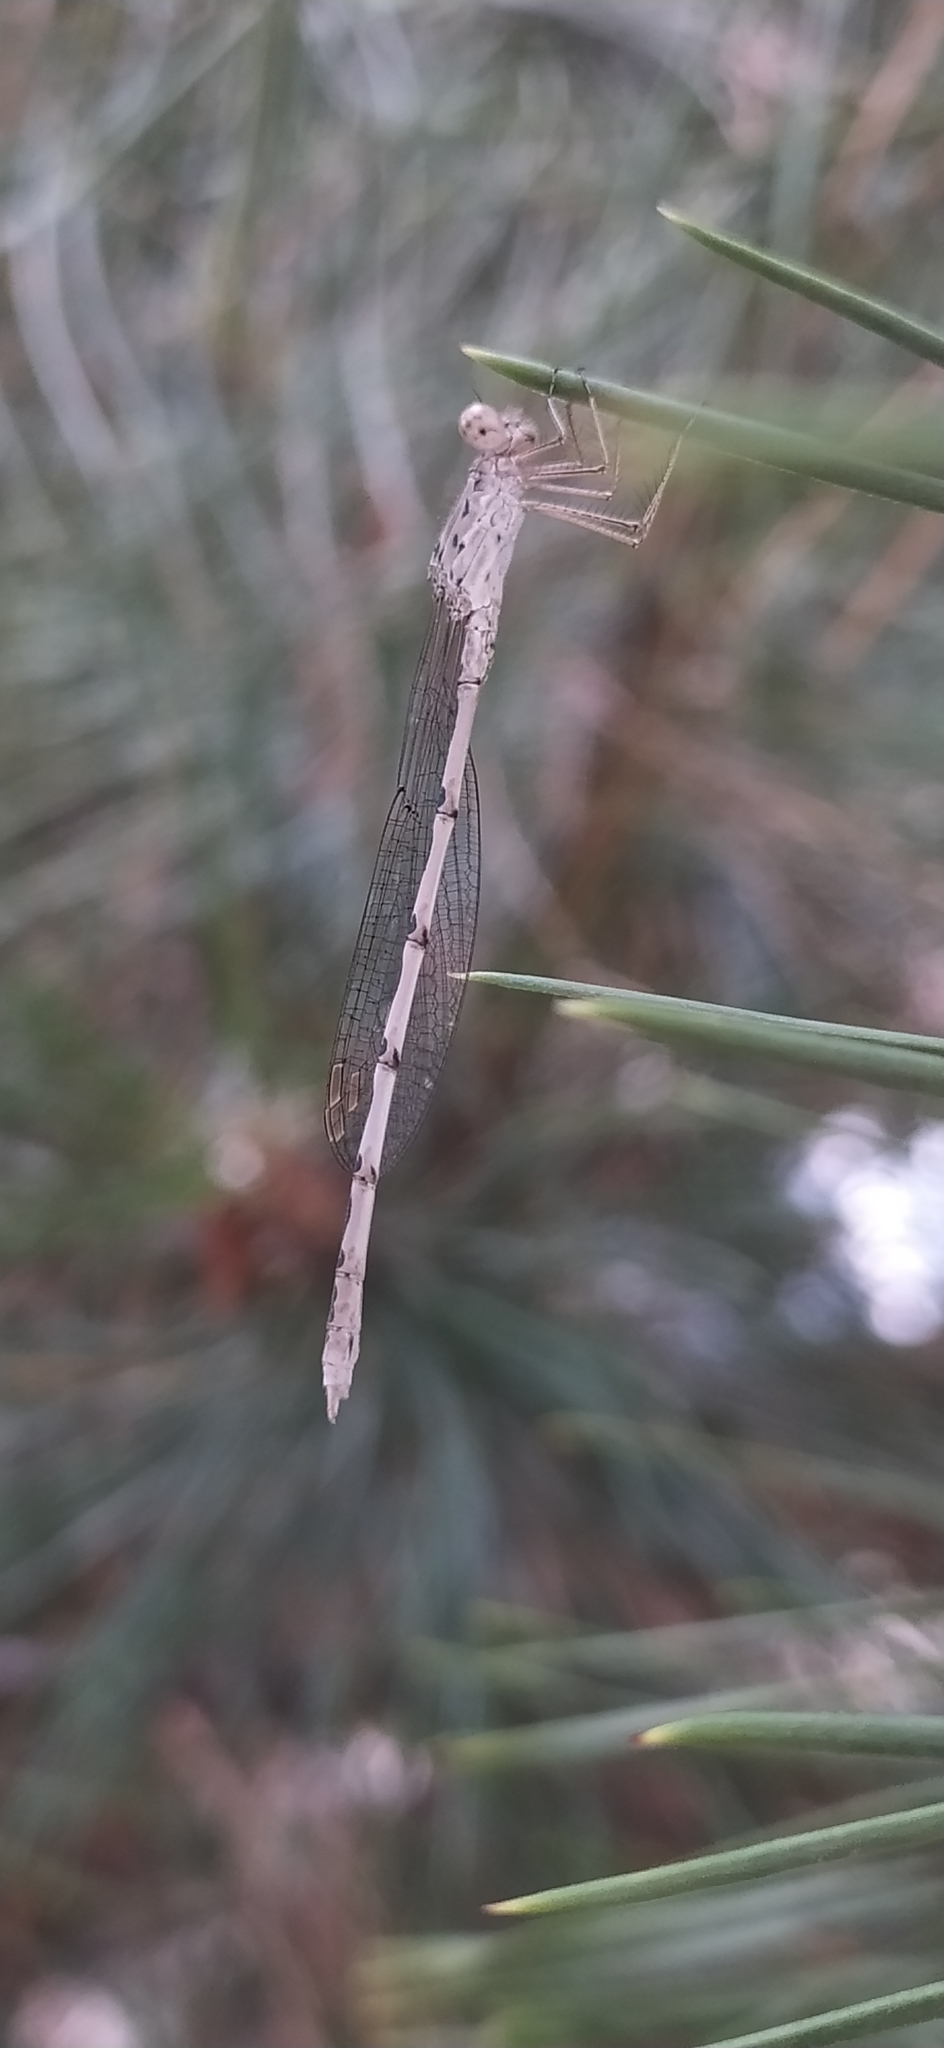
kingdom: Animalia
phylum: Arthropoda
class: Insecta
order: Odonata
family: Lestidae
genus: Sympecma
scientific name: Sympecma gobica
